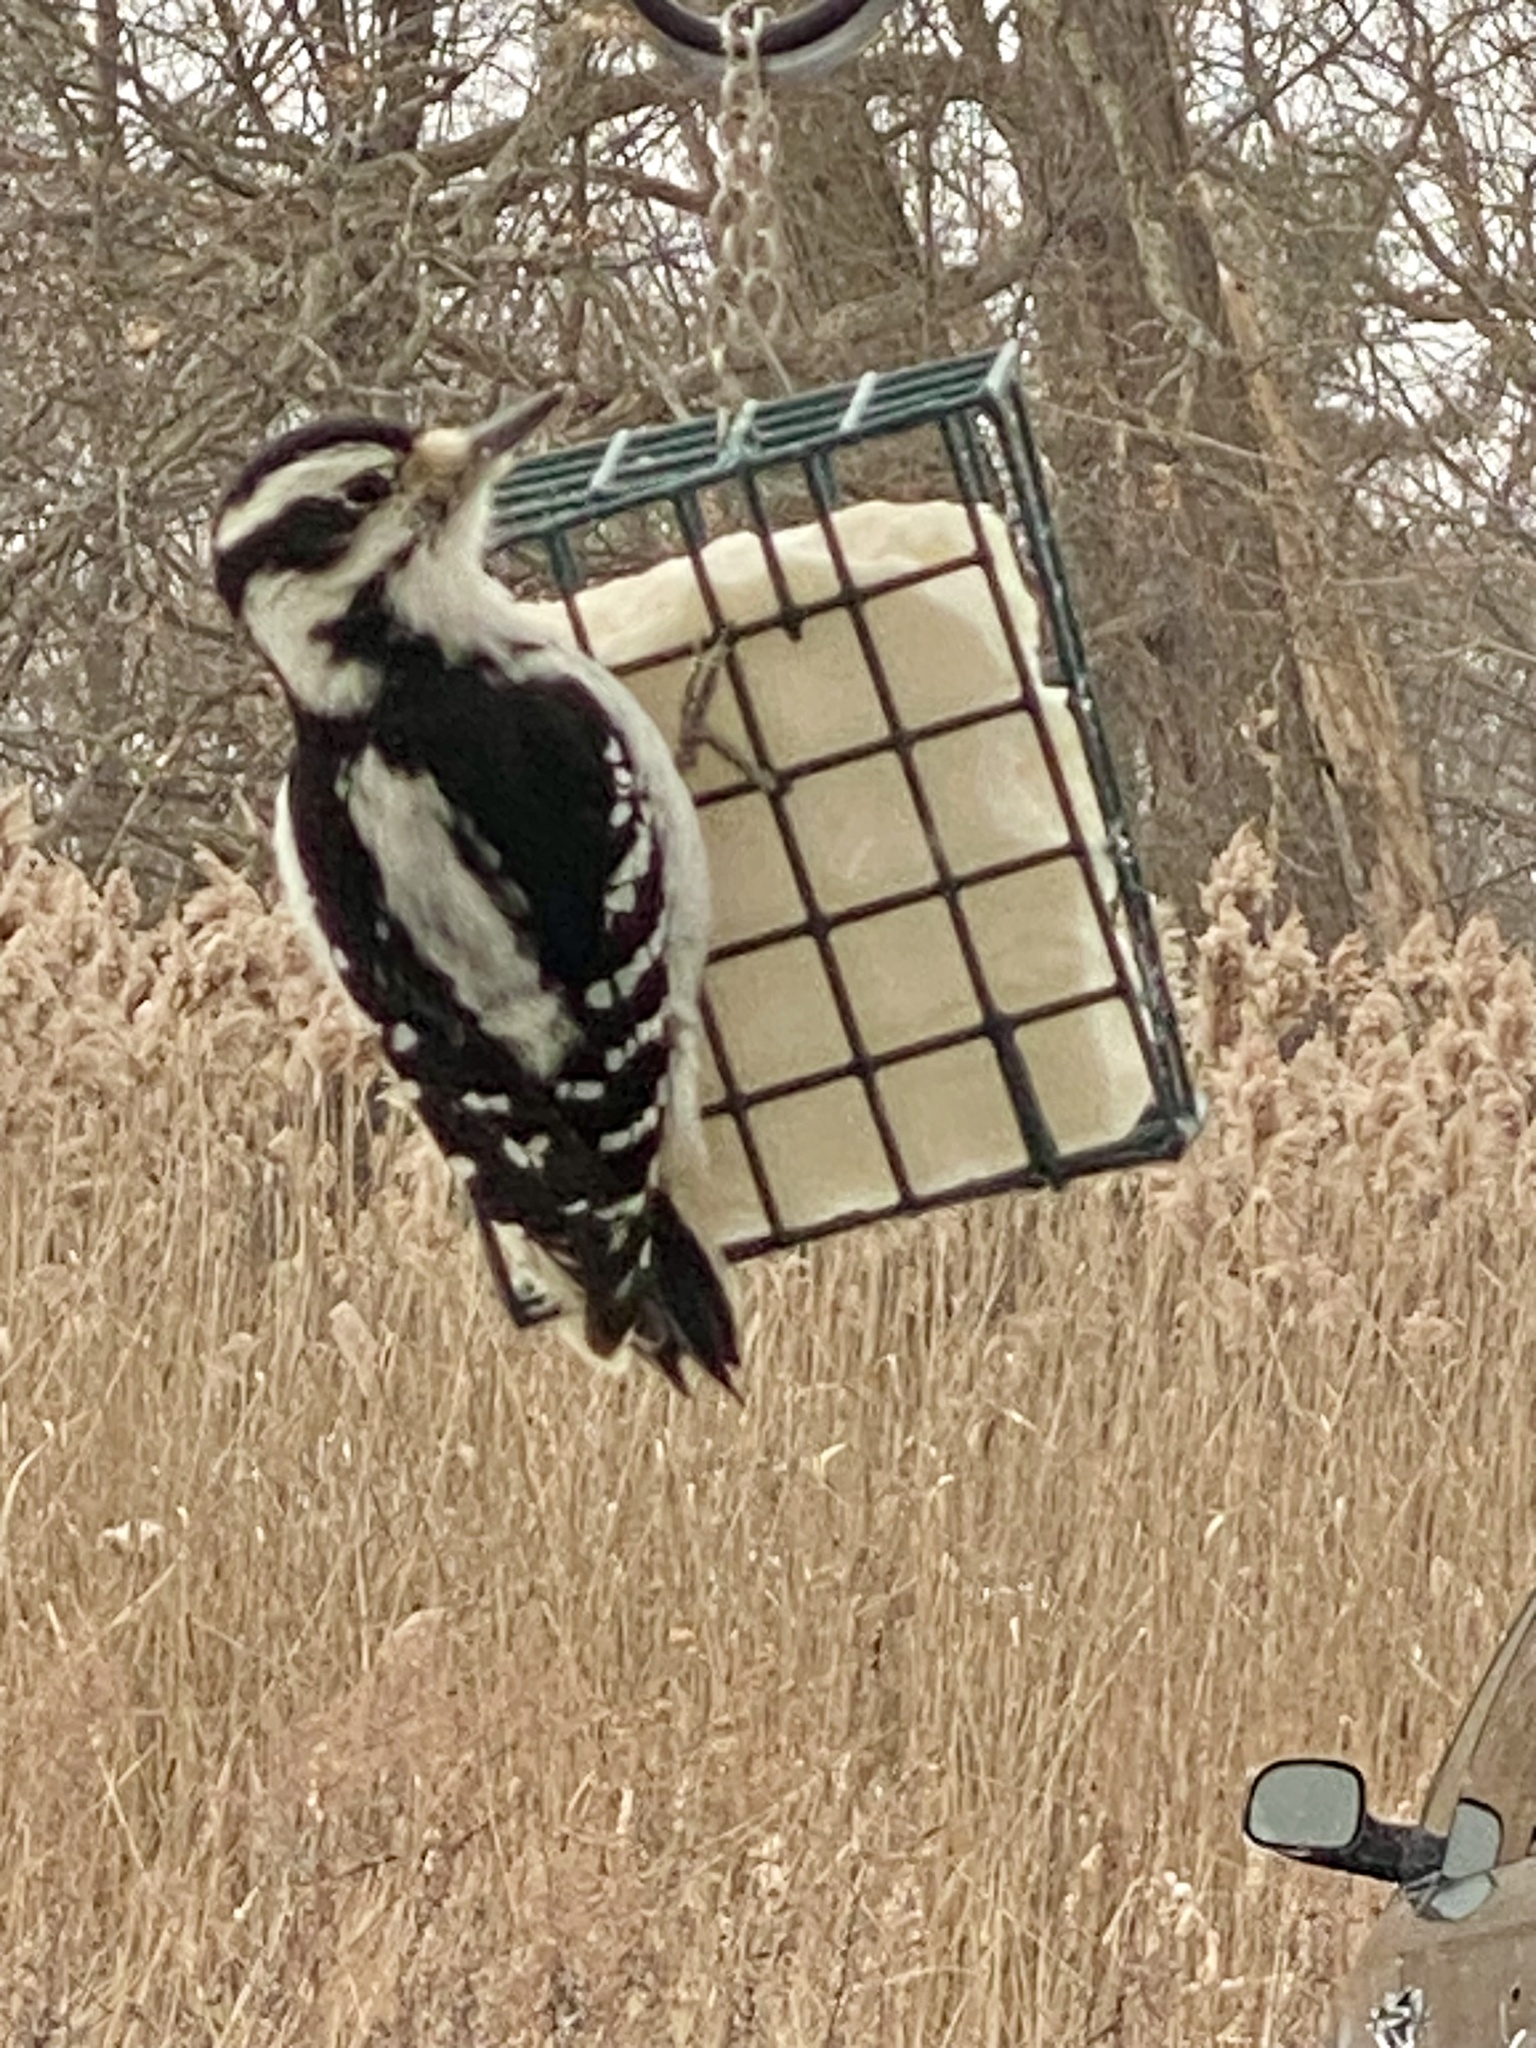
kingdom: Animalia
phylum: Chordata
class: Aves
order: Piciformes
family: Picidae
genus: Dryobates
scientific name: Dryobates pubescens
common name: Downy woodpecker
